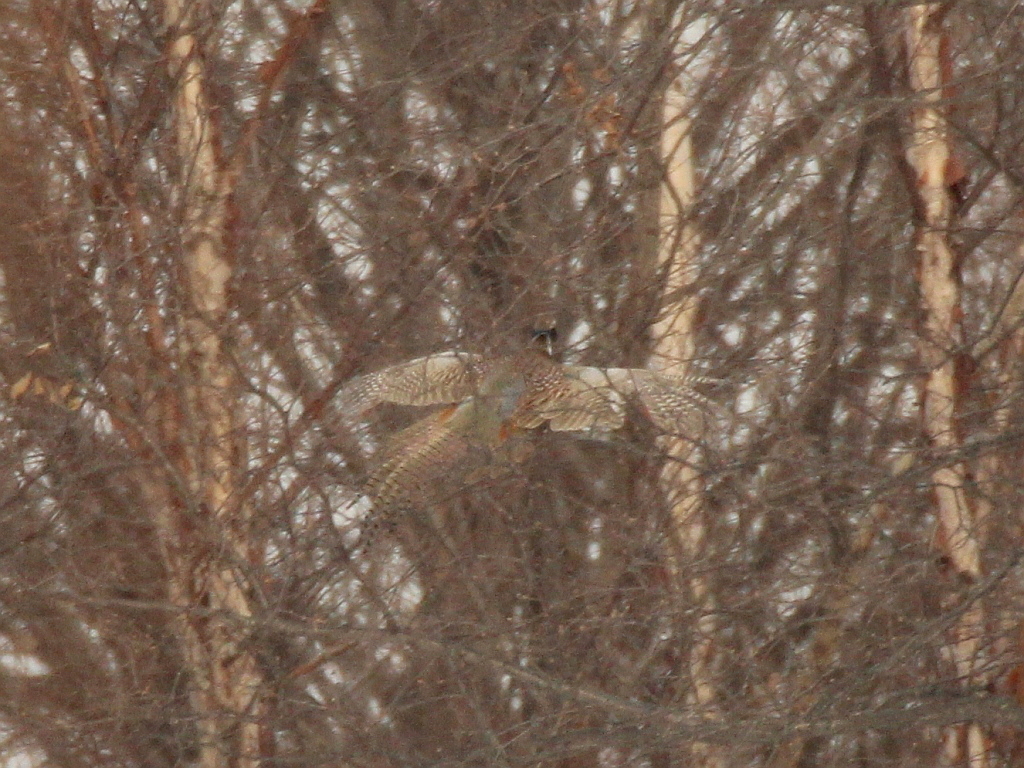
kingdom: Animalia
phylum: Chordata
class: Aves
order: Galliformes
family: Phasianidae
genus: Phasianus
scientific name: Phasianus colchicus
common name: Common pheasant
